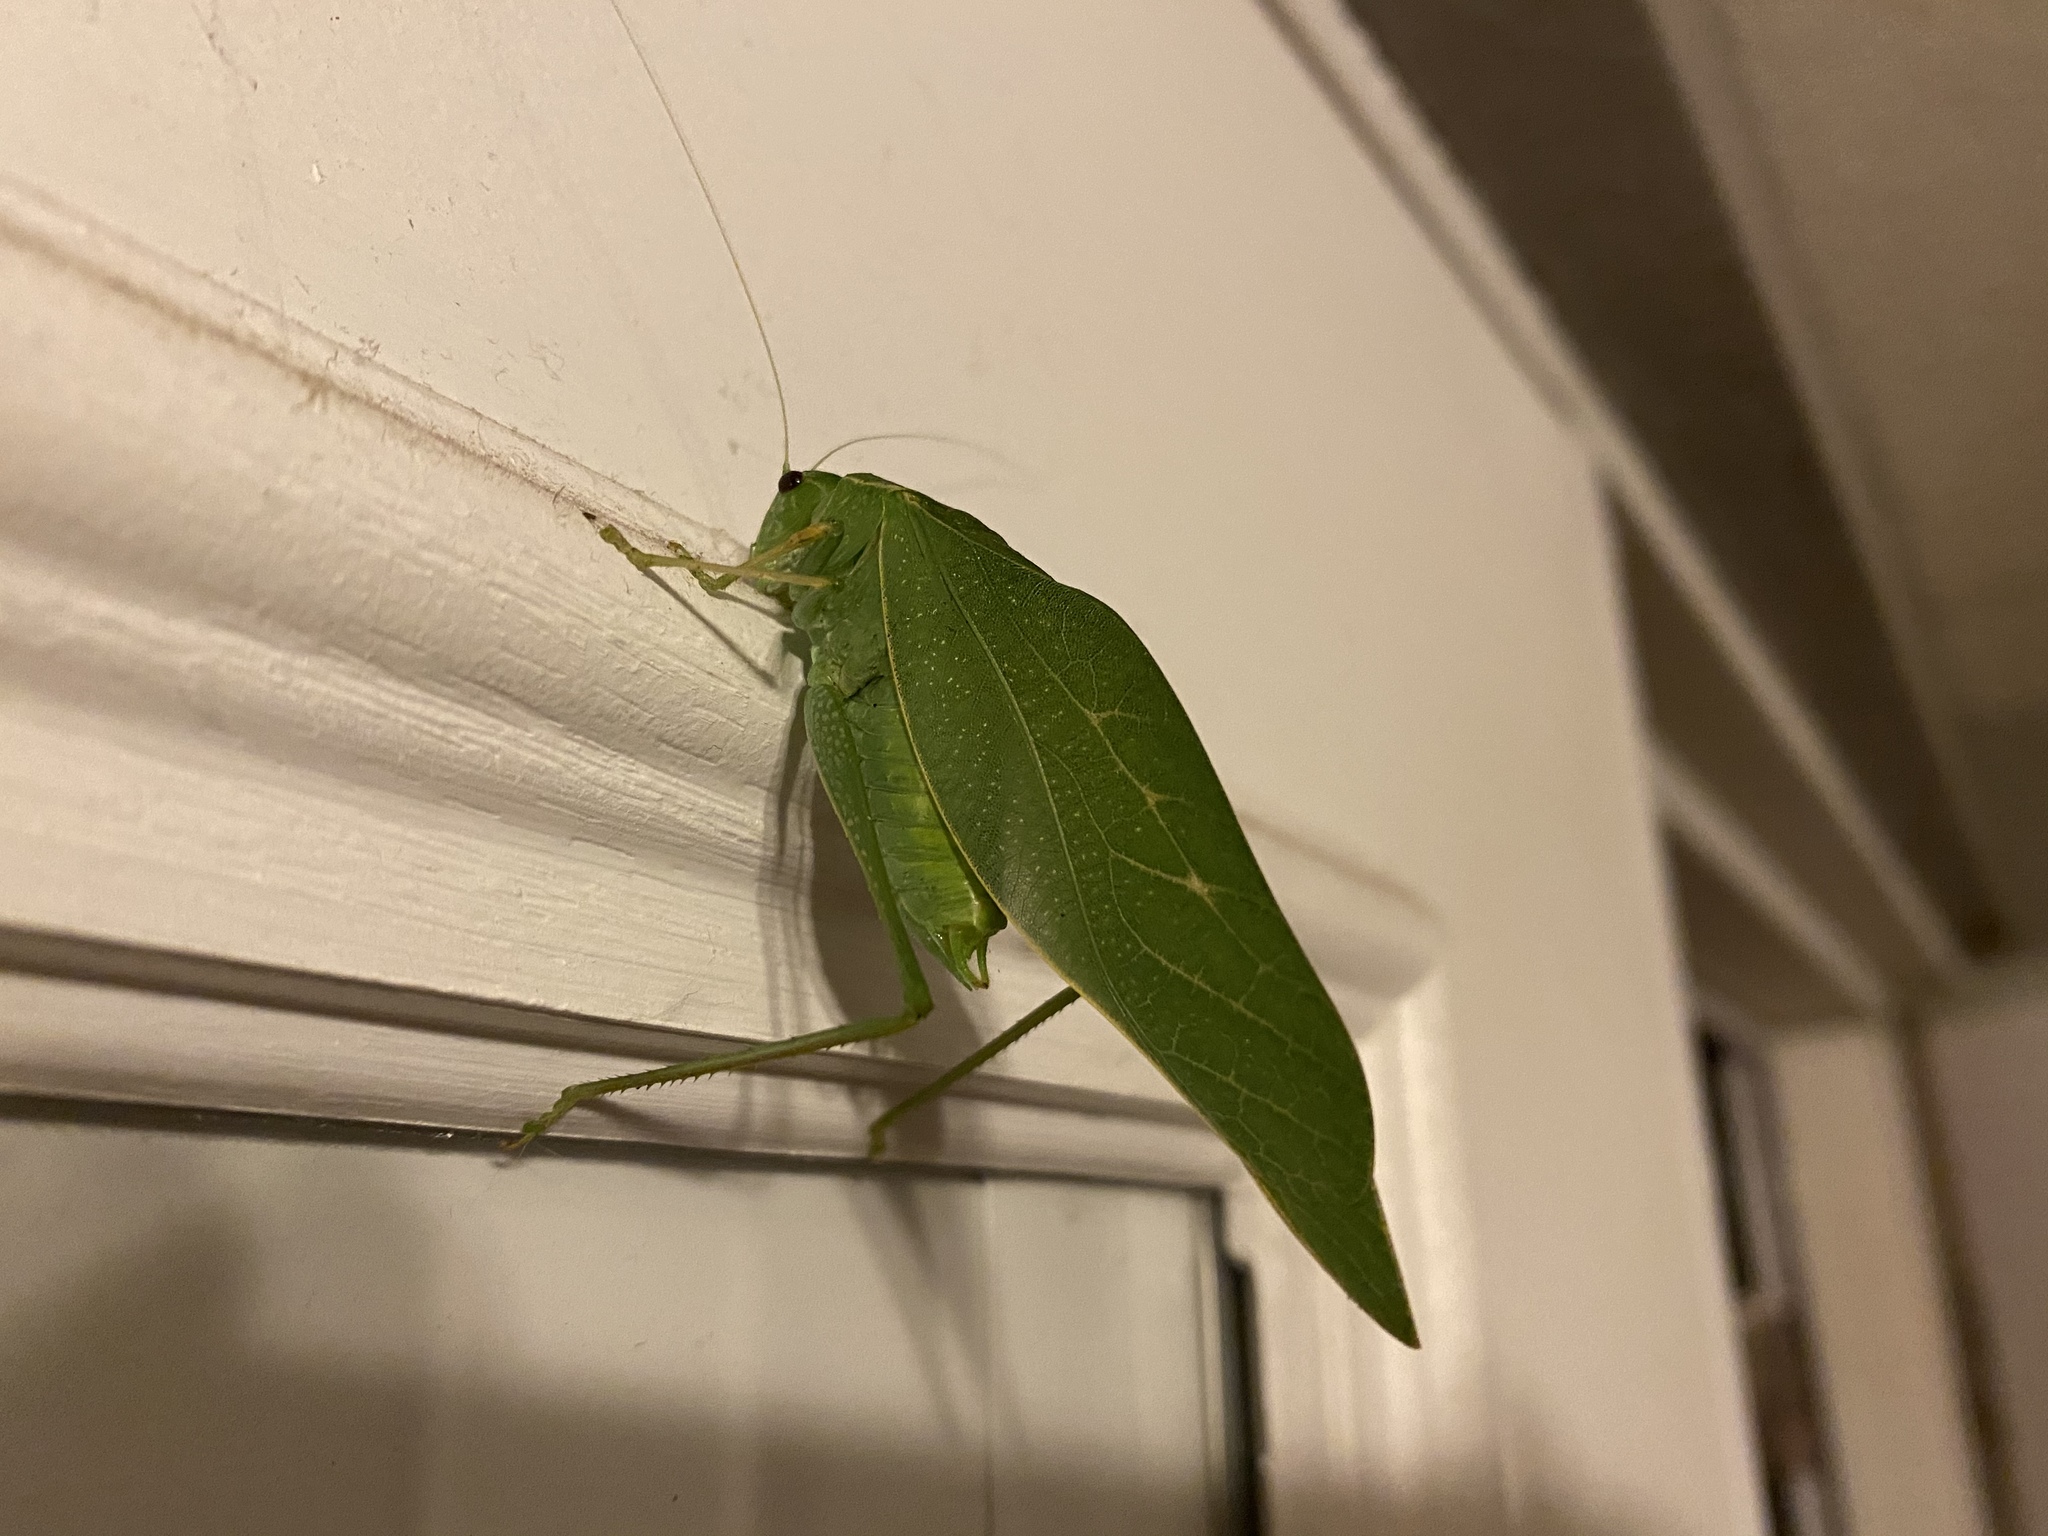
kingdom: Animalia
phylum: Arthropoda
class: Insecta
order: Orthoptera
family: Tettigoniidae
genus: Microcentrum
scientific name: Microcentrum rhombifolium
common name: Broad-winged katydid
